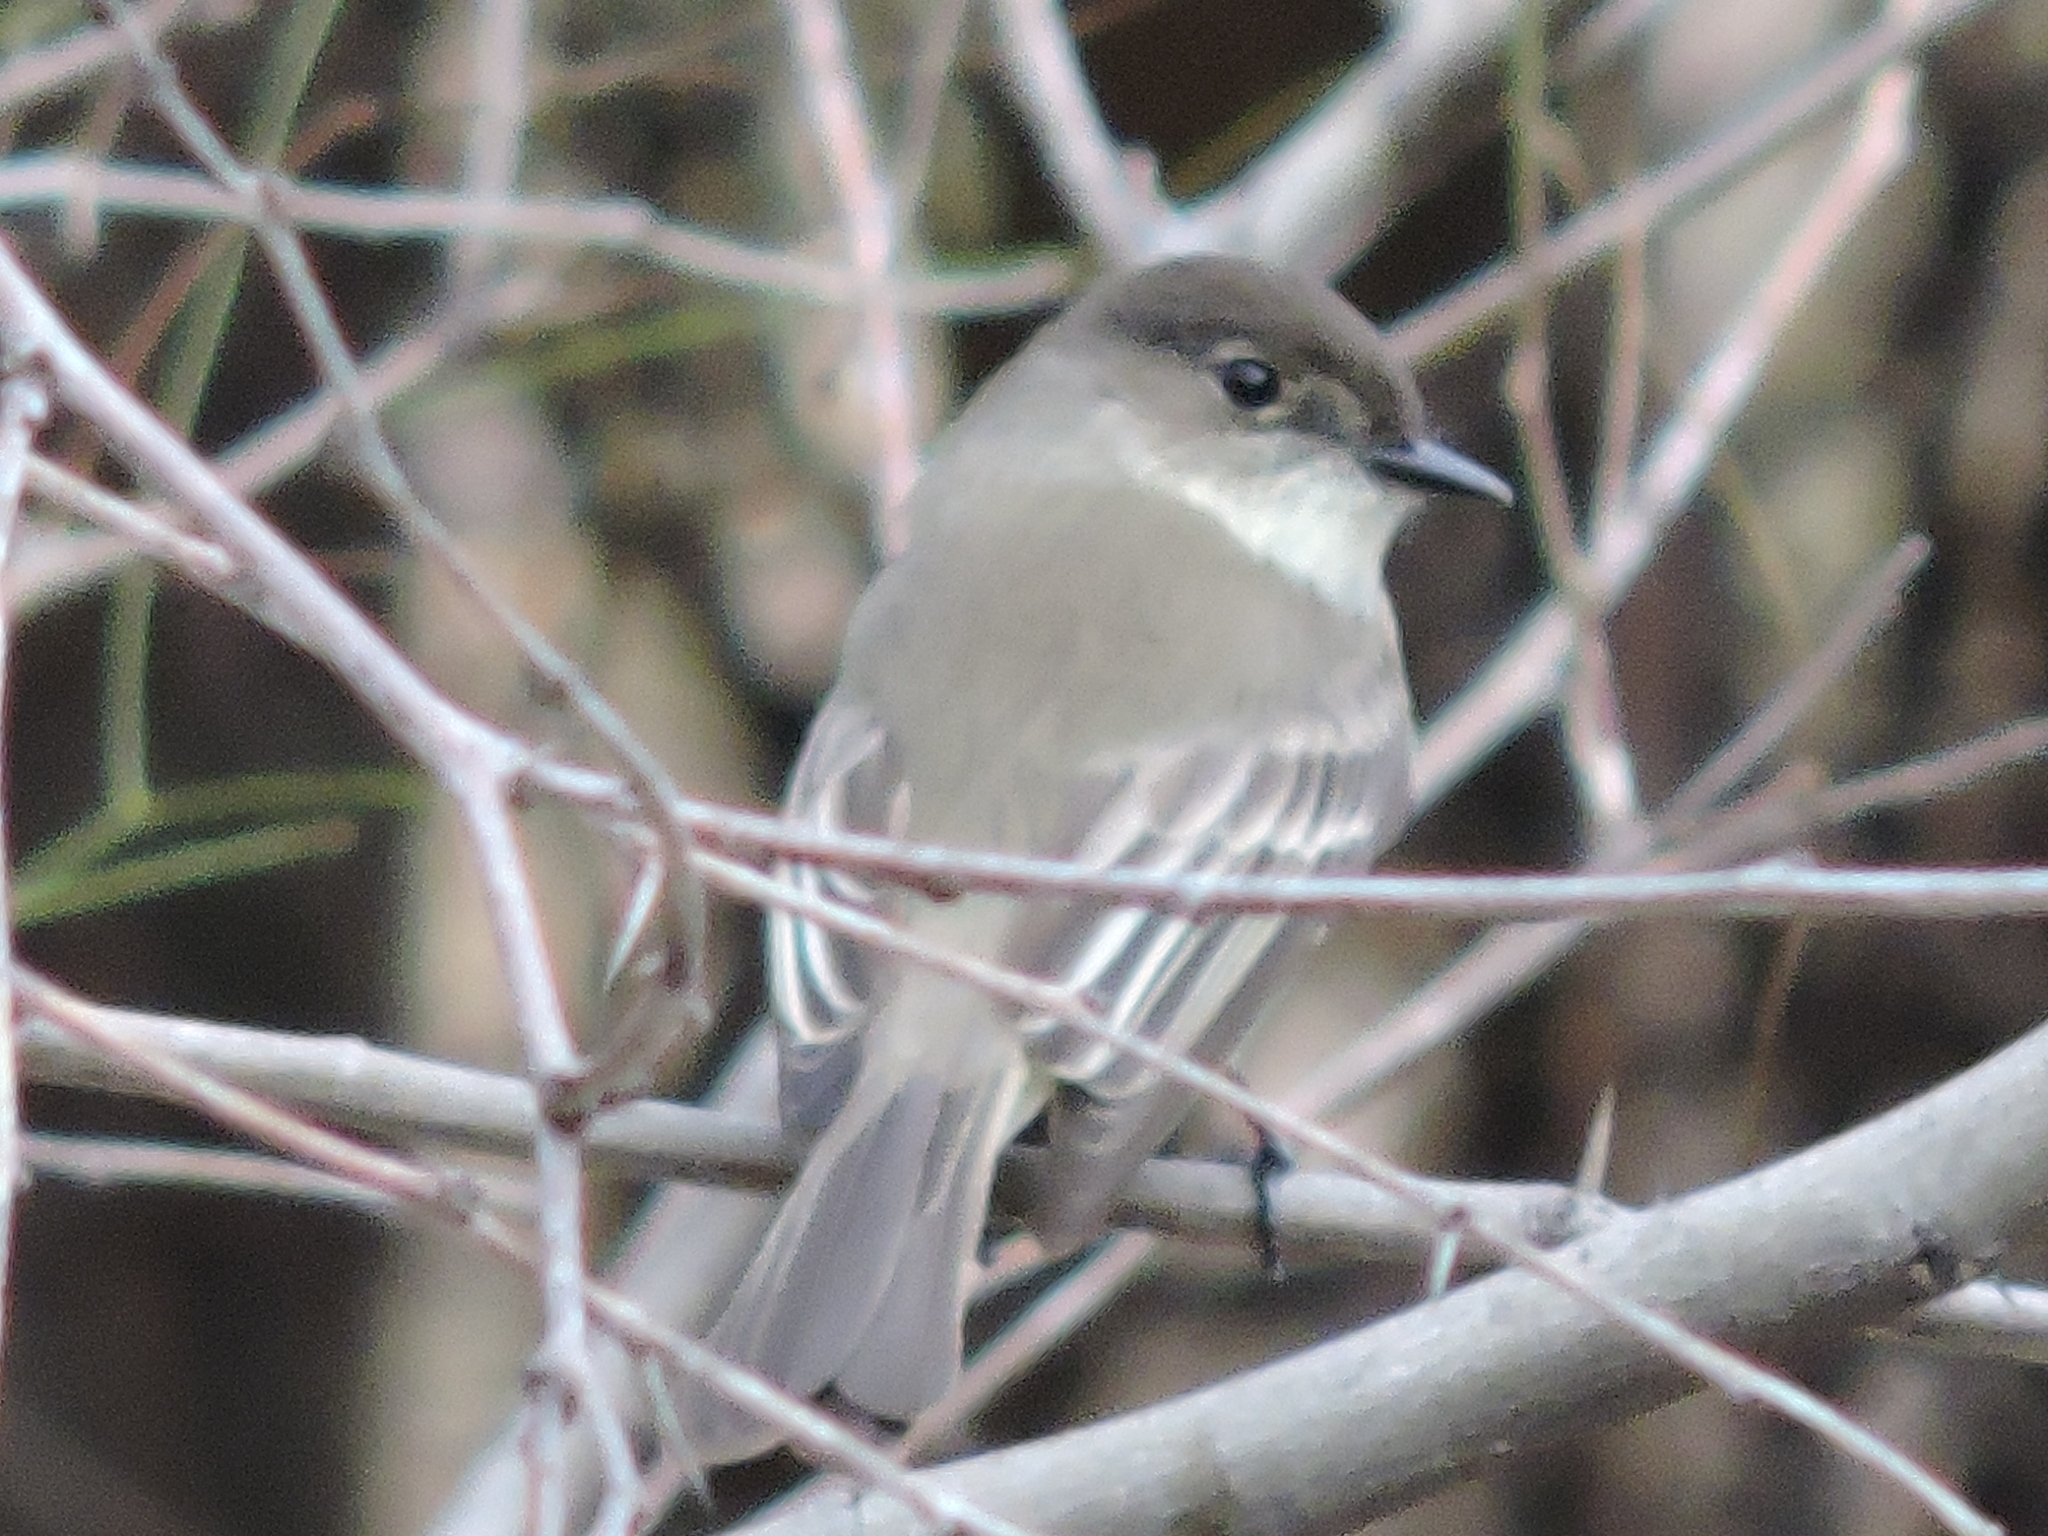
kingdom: Animalia
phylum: Chordata
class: Aves
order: Passeriformes
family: Tyrannidae
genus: Sayornis
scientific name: Sayornis phoebe
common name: Eastern phoebe
